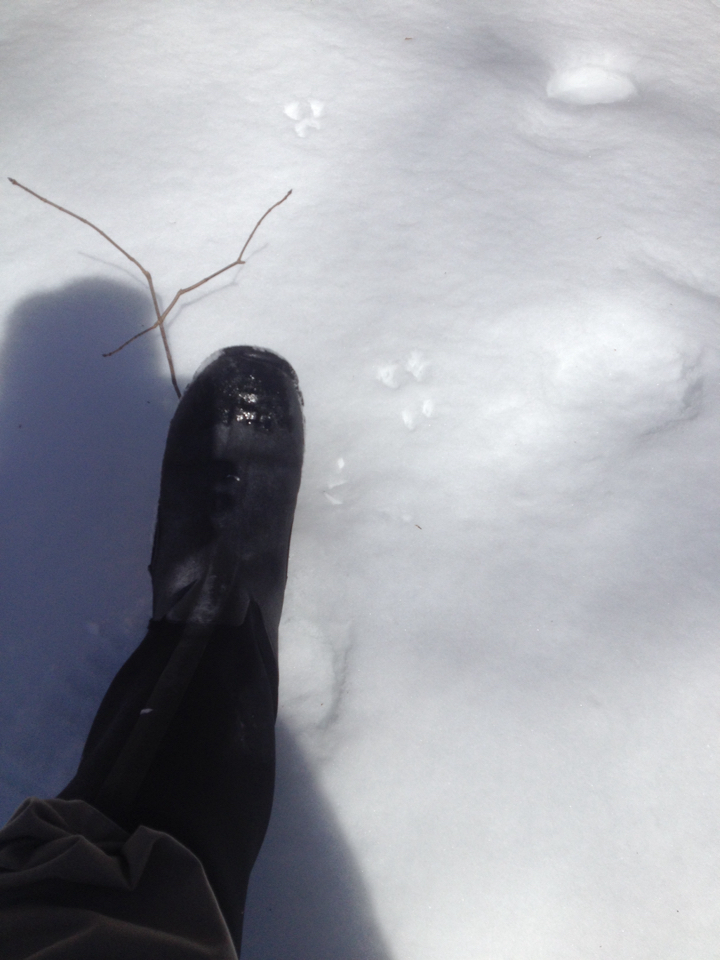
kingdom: Animalia
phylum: Chordata
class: Mammalia
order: Rodentia
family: Sciuridae
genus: Tamiasciurus
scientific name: Tamiasciurus hudsonicus
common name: Red squirrel
